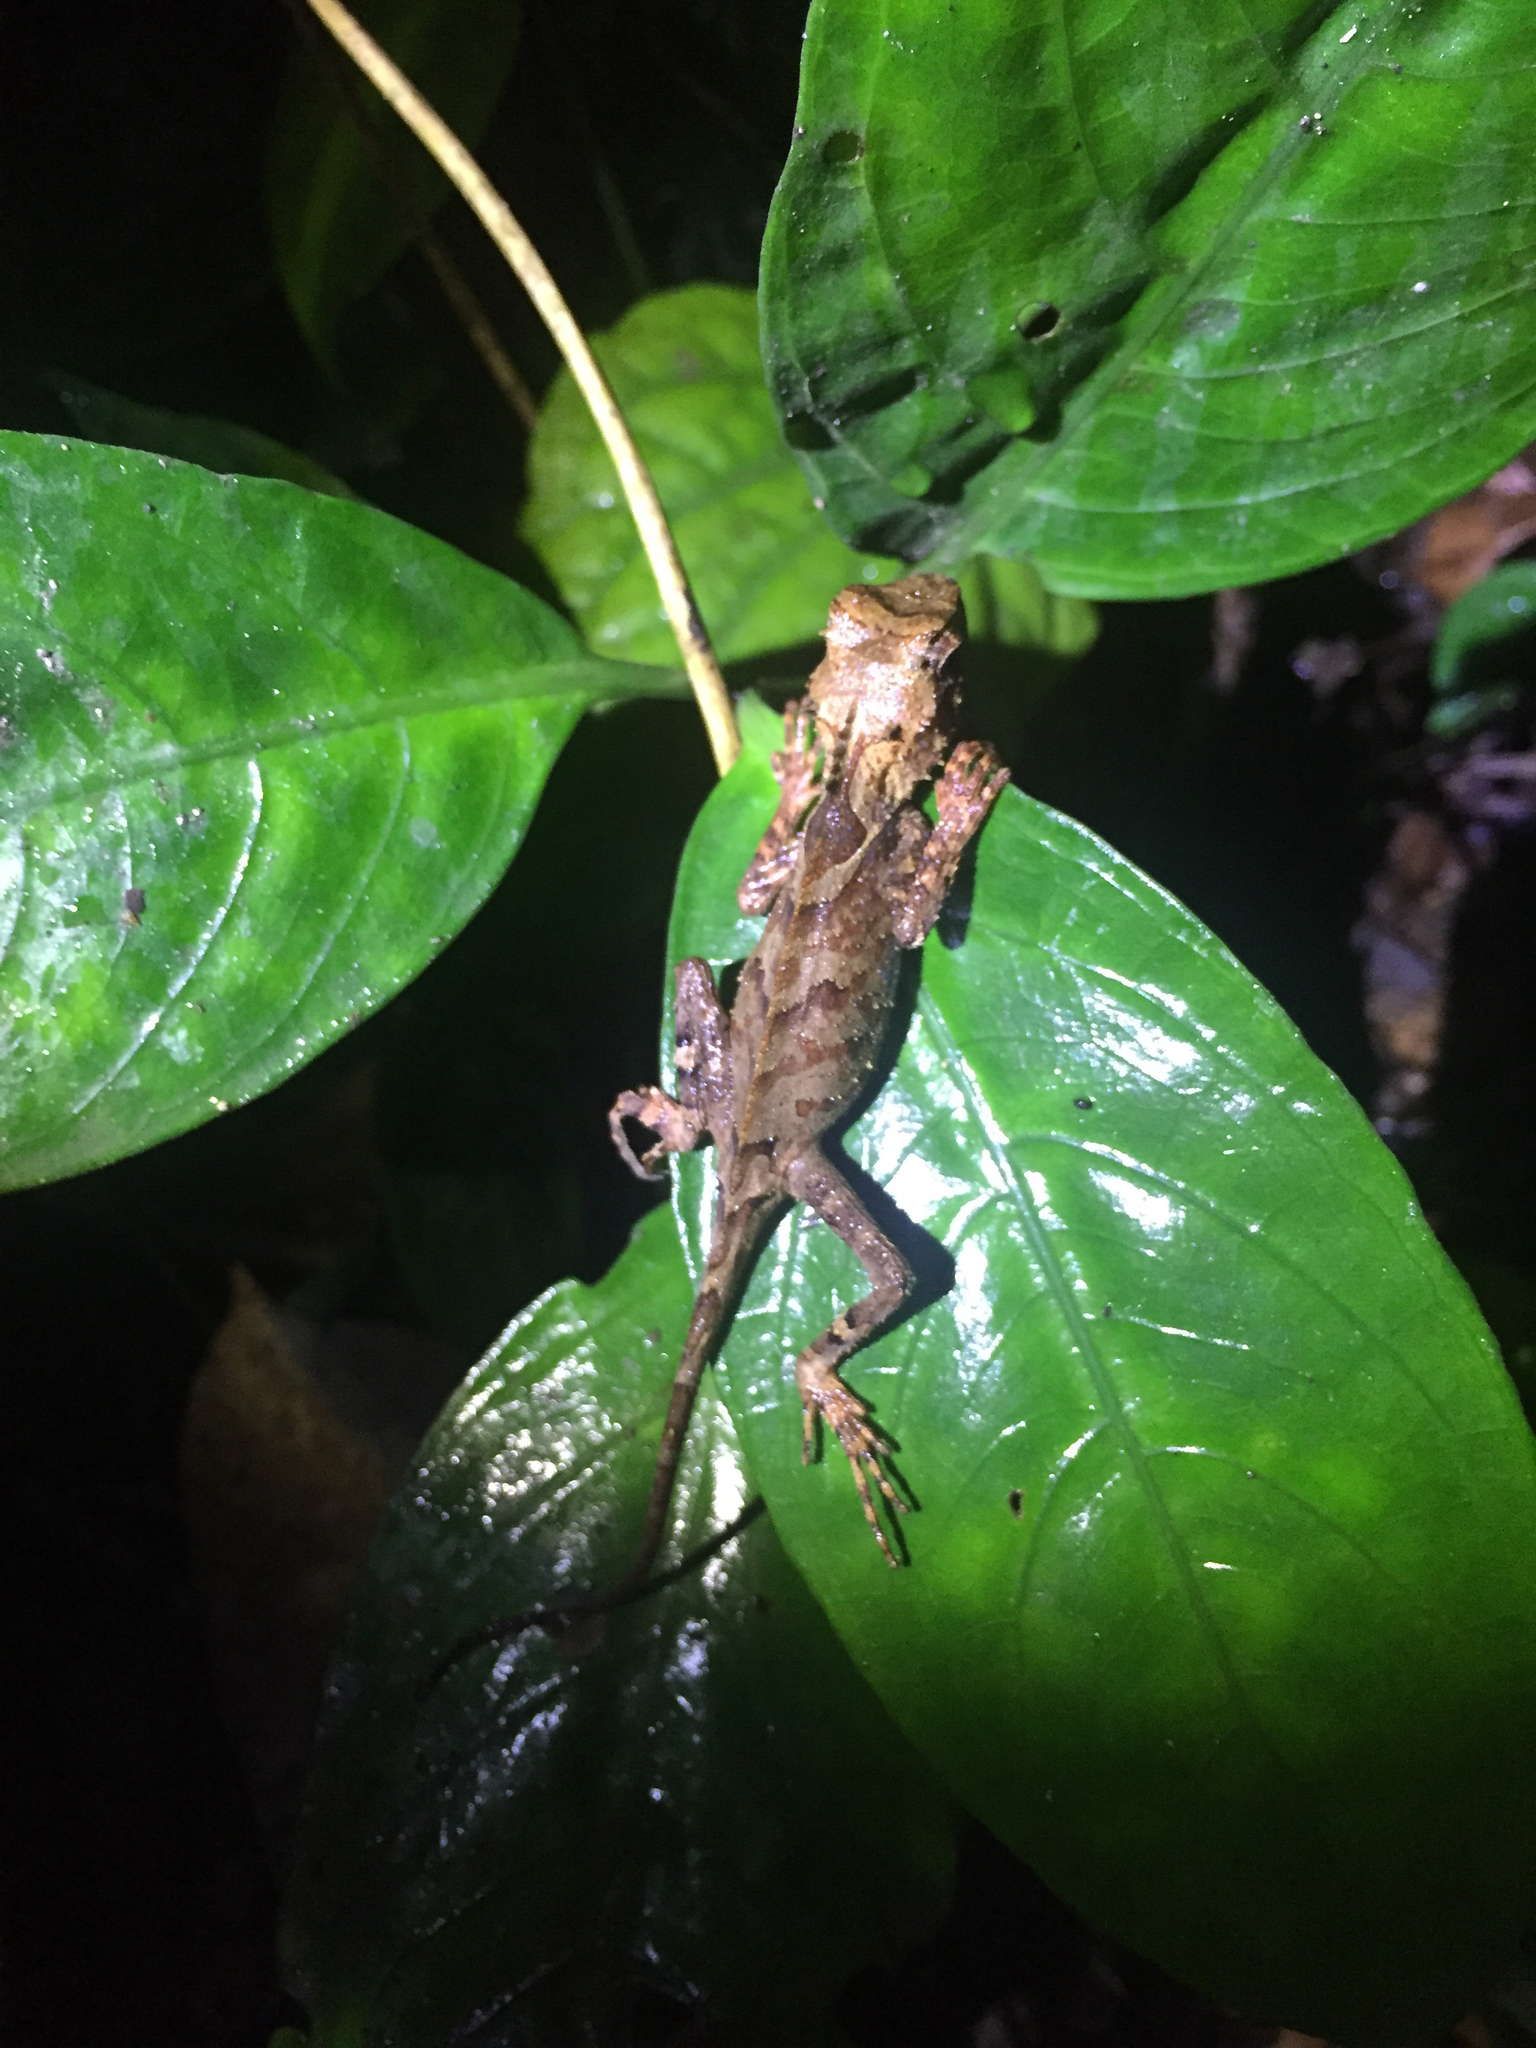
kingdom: Animalia
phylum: Chordata
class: Squamata
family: Agamidae
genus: Acanthosaura
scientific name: Acanthosaura lepidogaster
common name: Brown pricklenape
